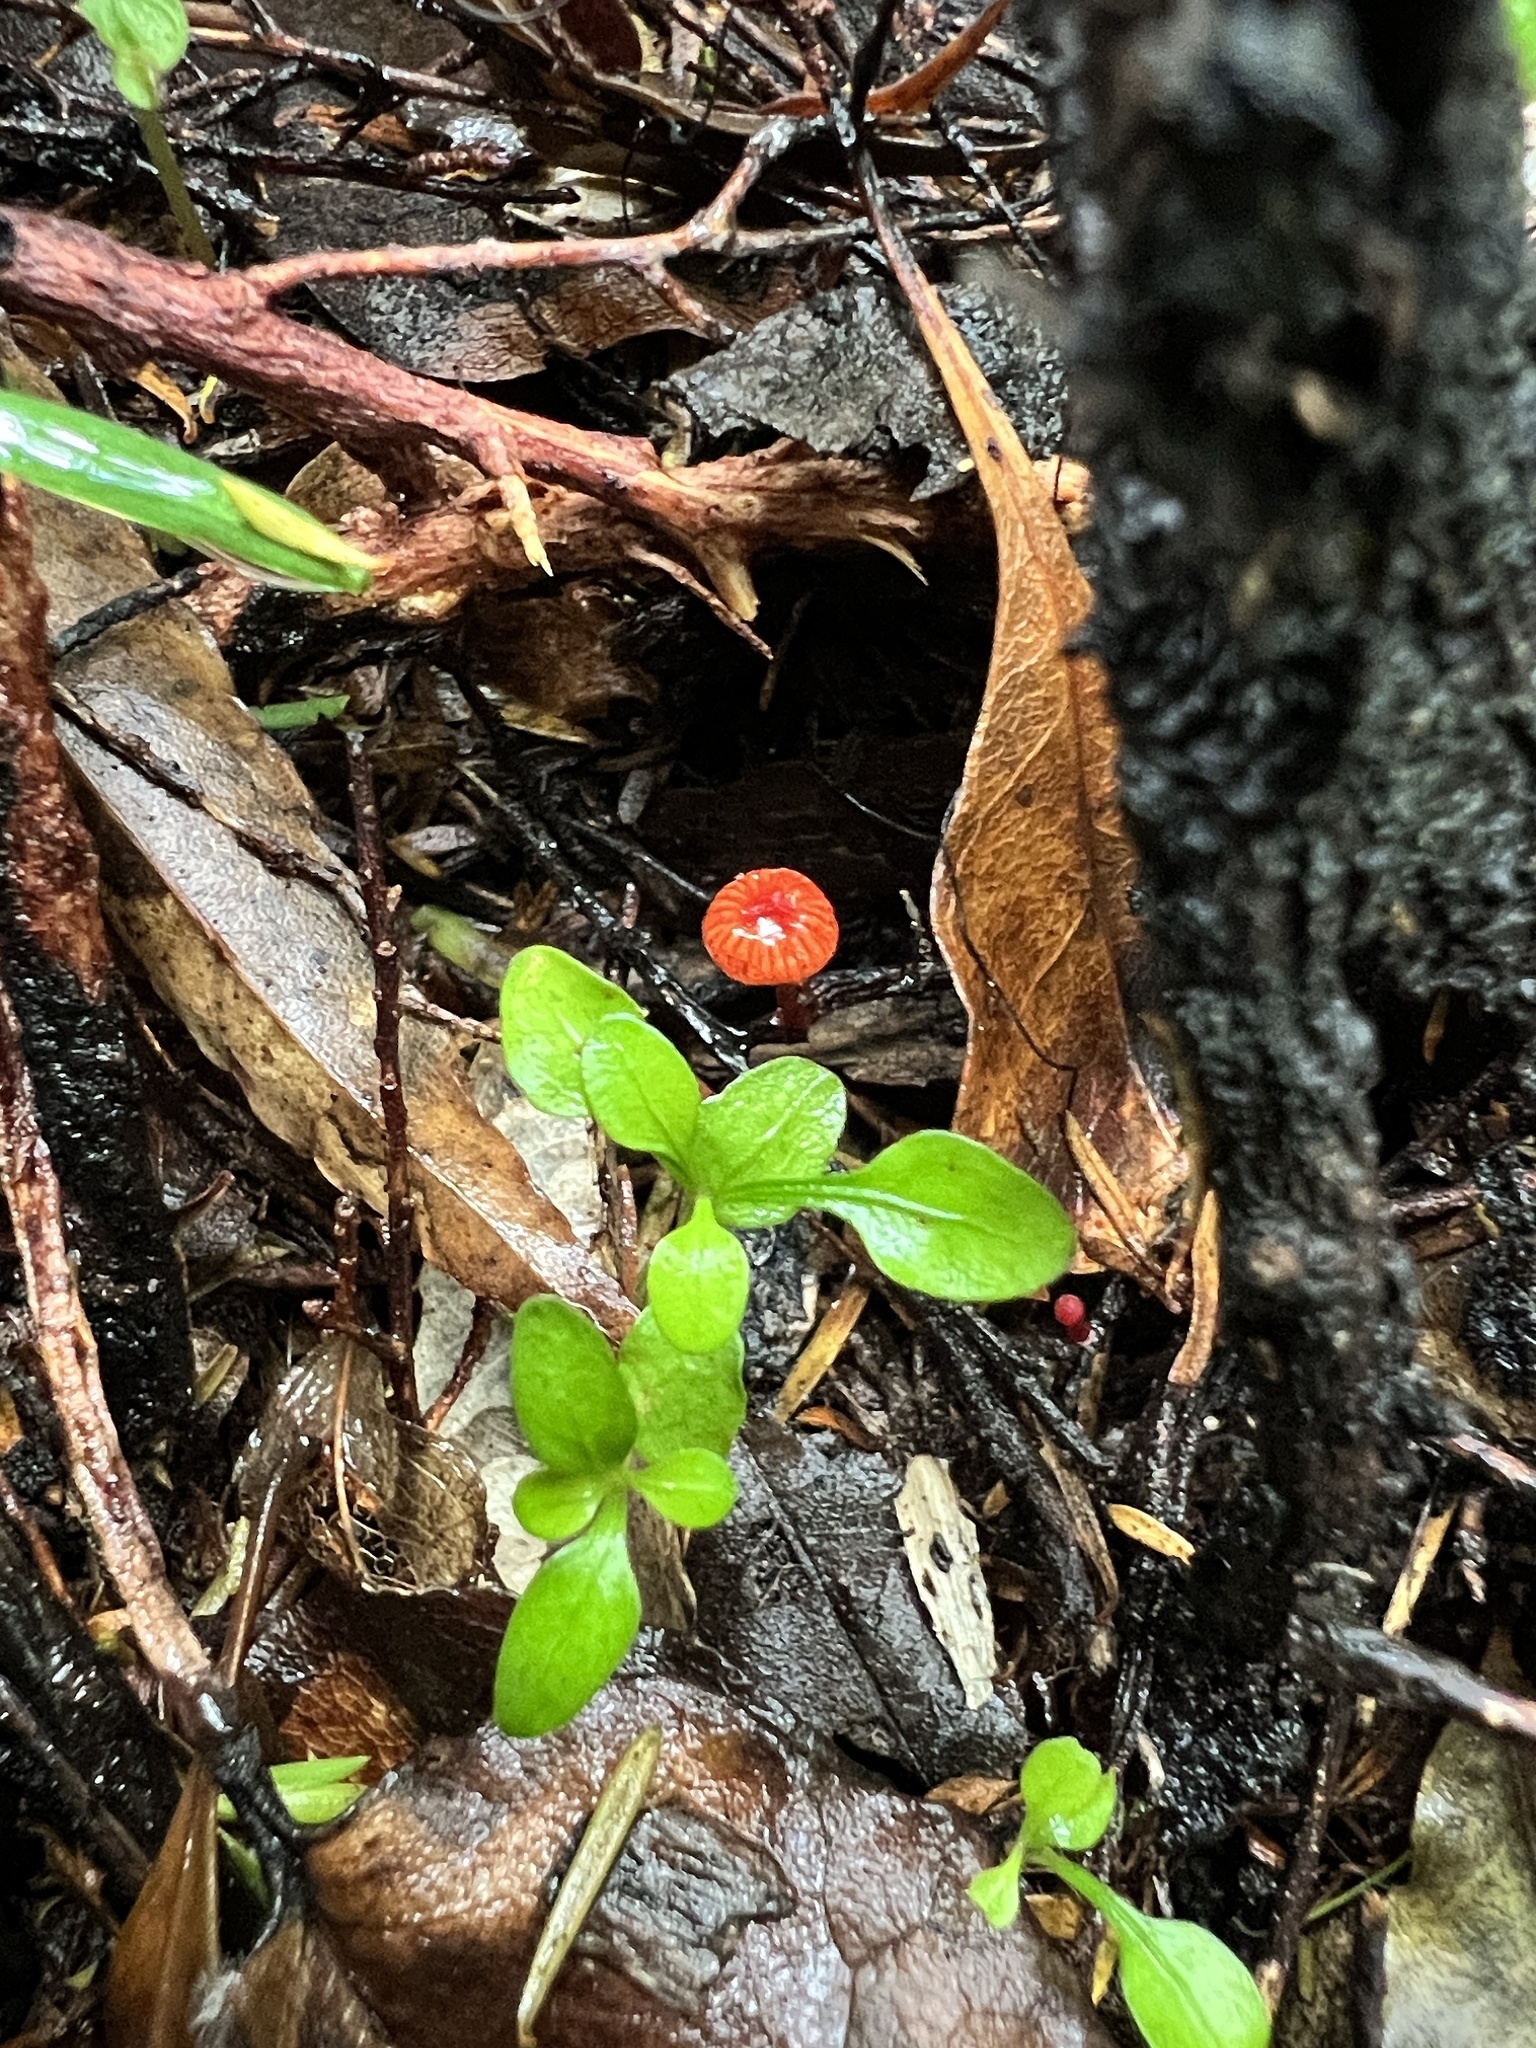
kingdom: Fungi
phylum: Basidiomycota
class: Agaricomycetes
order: Agaricales
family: Mycenaceae
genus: Cruentomycena
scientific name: Cruentomycena viscidocruenta
